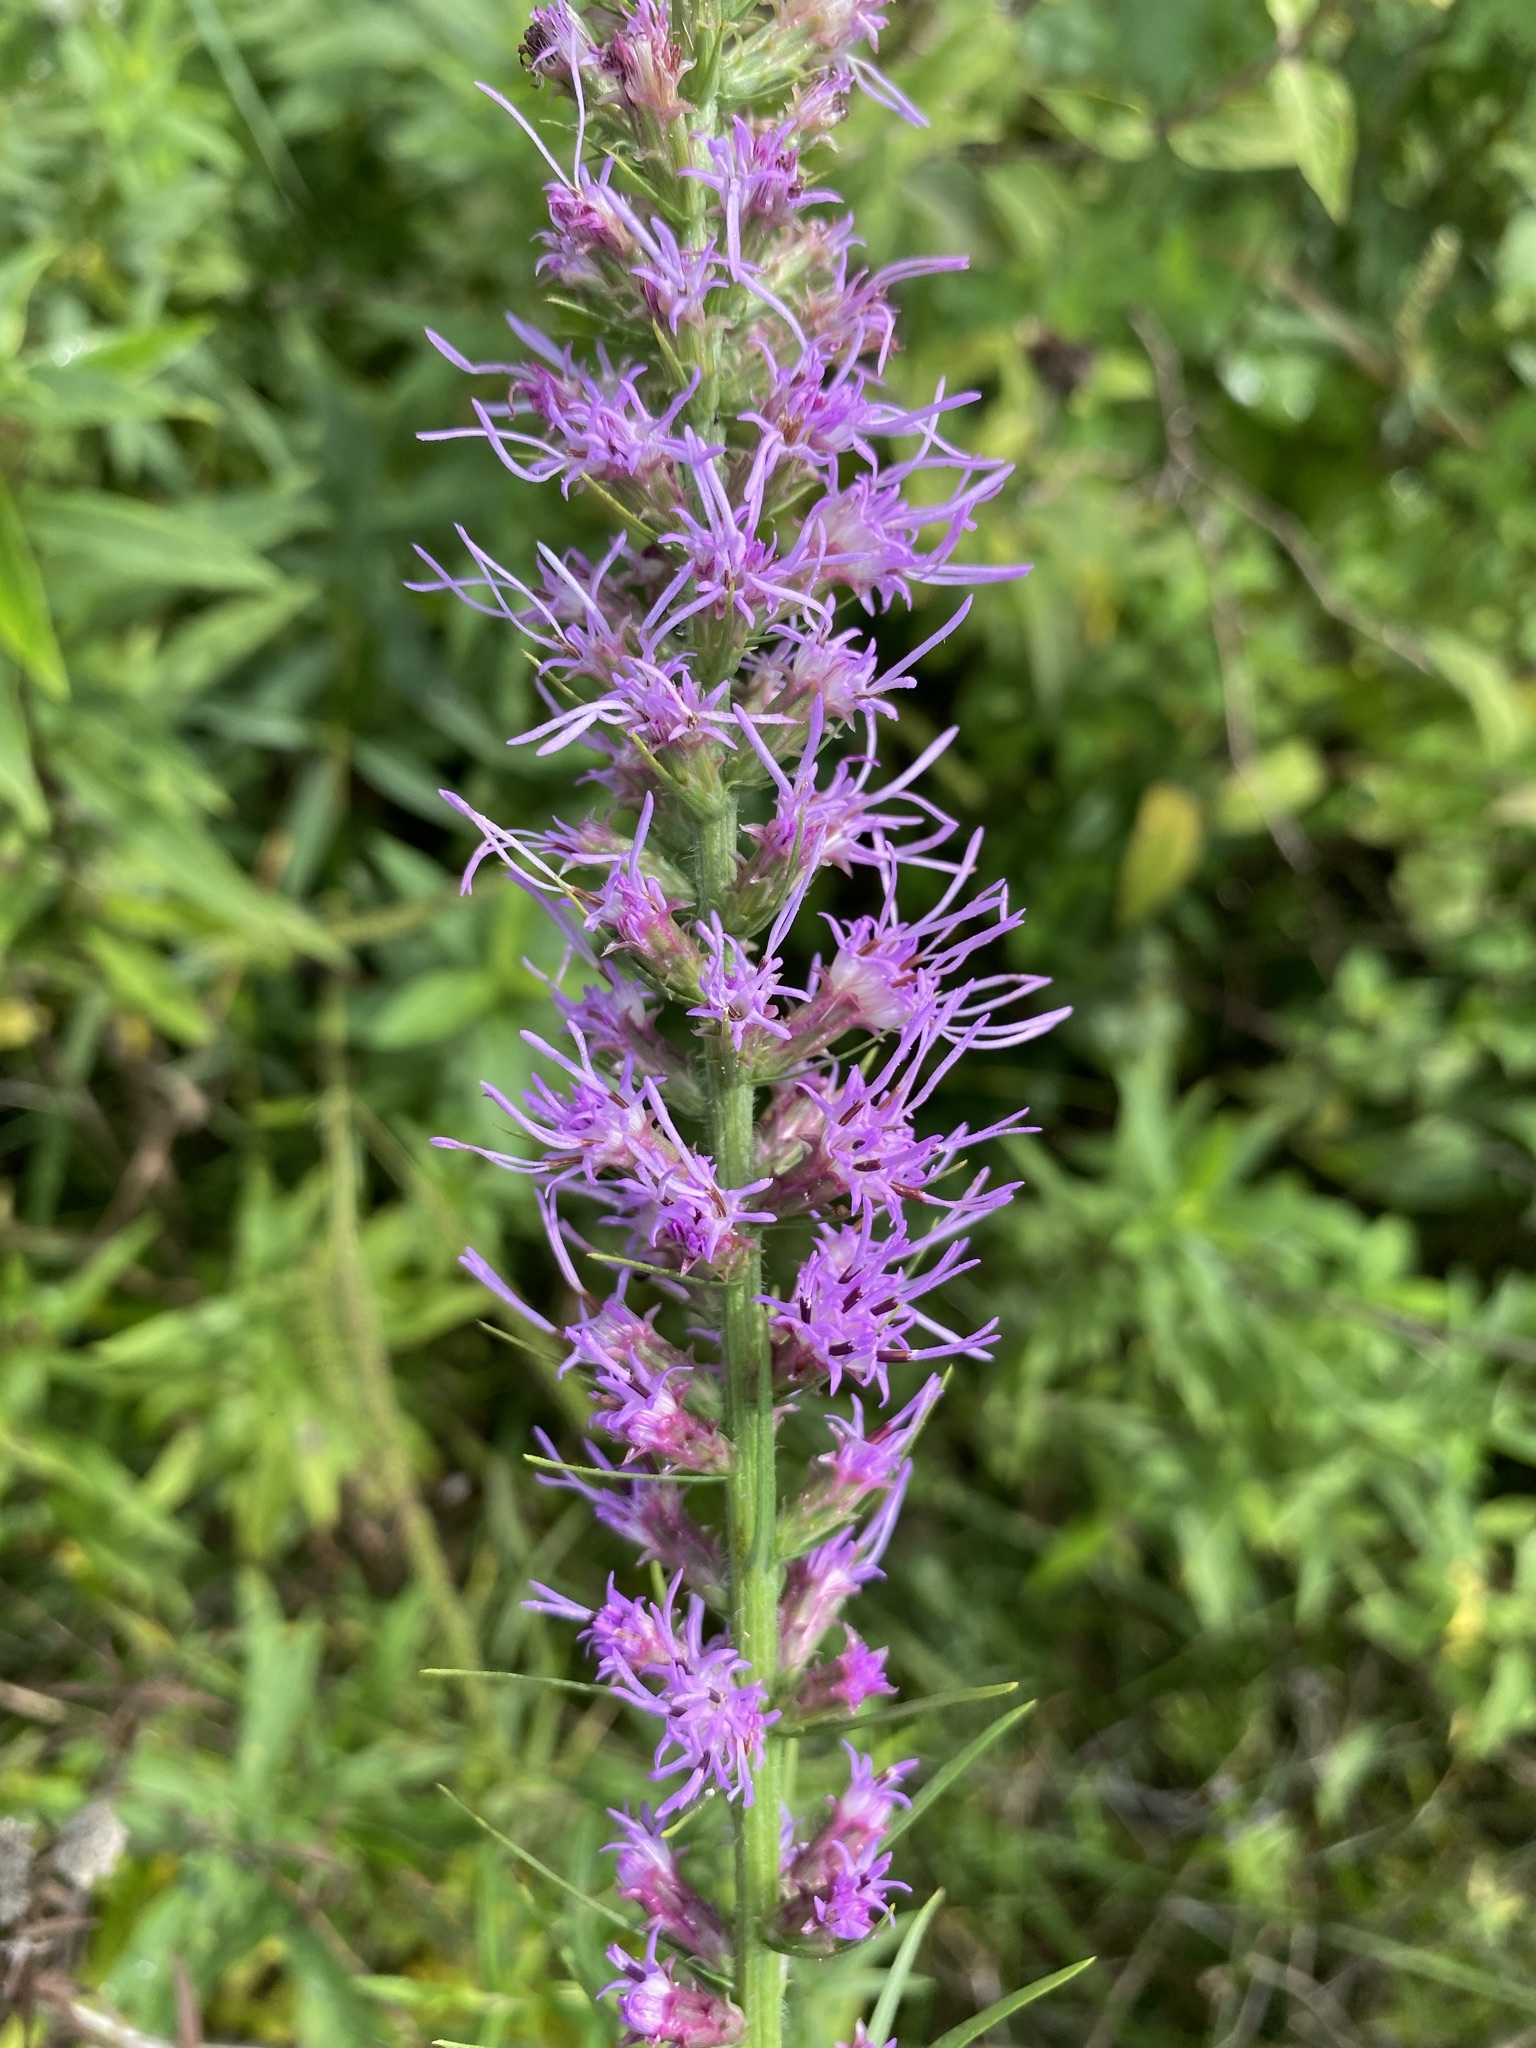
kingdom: Plantae
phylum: Tracheophyta
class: Magnoliopsida
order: Asterales
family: Asteraceae
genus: Liatris
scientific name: Liatris pycnostachya
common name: Cattail gayfeather
